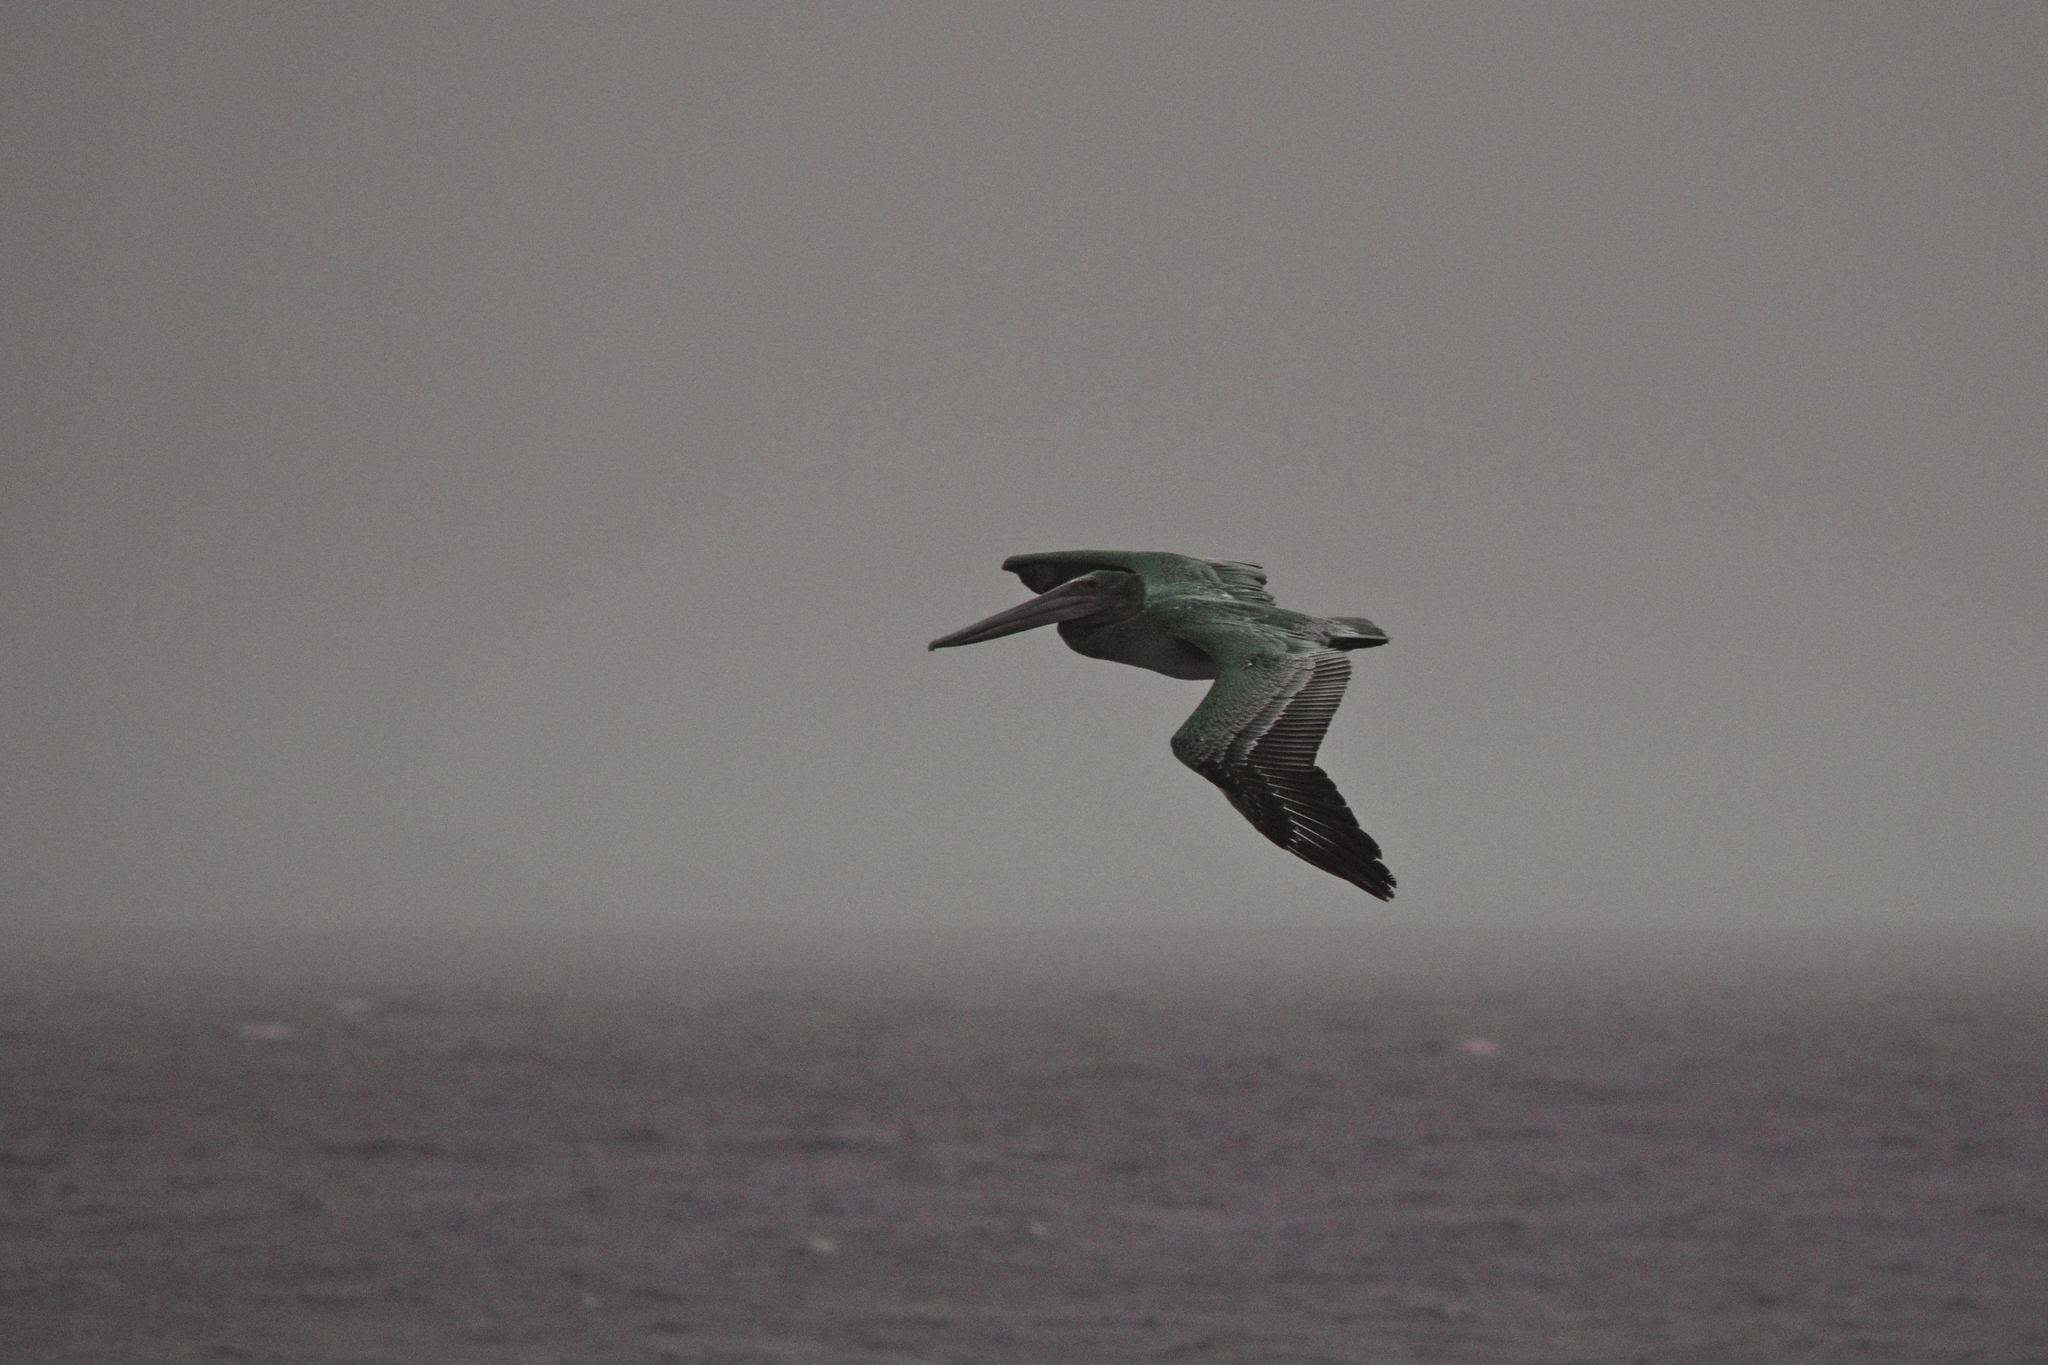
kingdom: Animalia
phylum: Chordata
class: Aves
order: Pelecaniformes
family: Pelecanidae
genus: Pelecanus
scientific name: Pelecanus occidentalis
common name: Brown pelican
